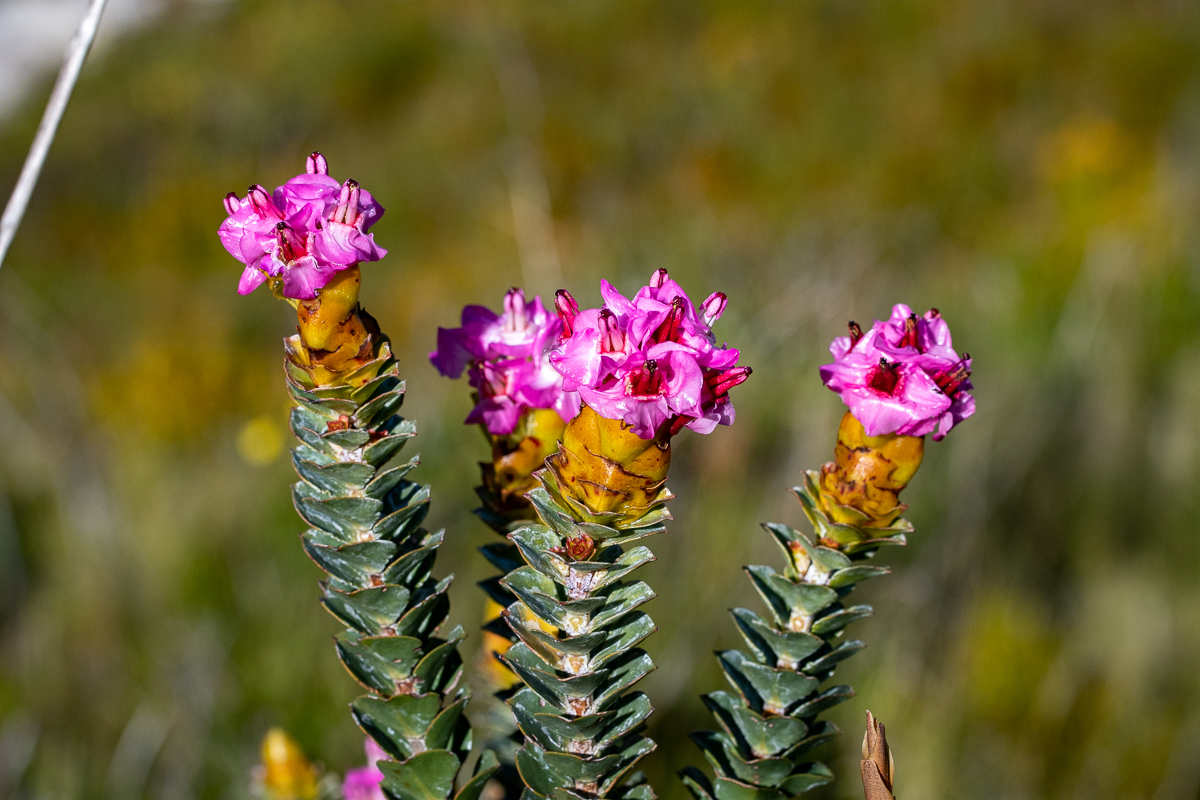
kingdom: Plantae
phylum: Tracheophyta
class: Magnoliopsida
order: Myrtales
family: Penaeaceae
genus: Saltera
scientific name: Saltera sarcocolla
